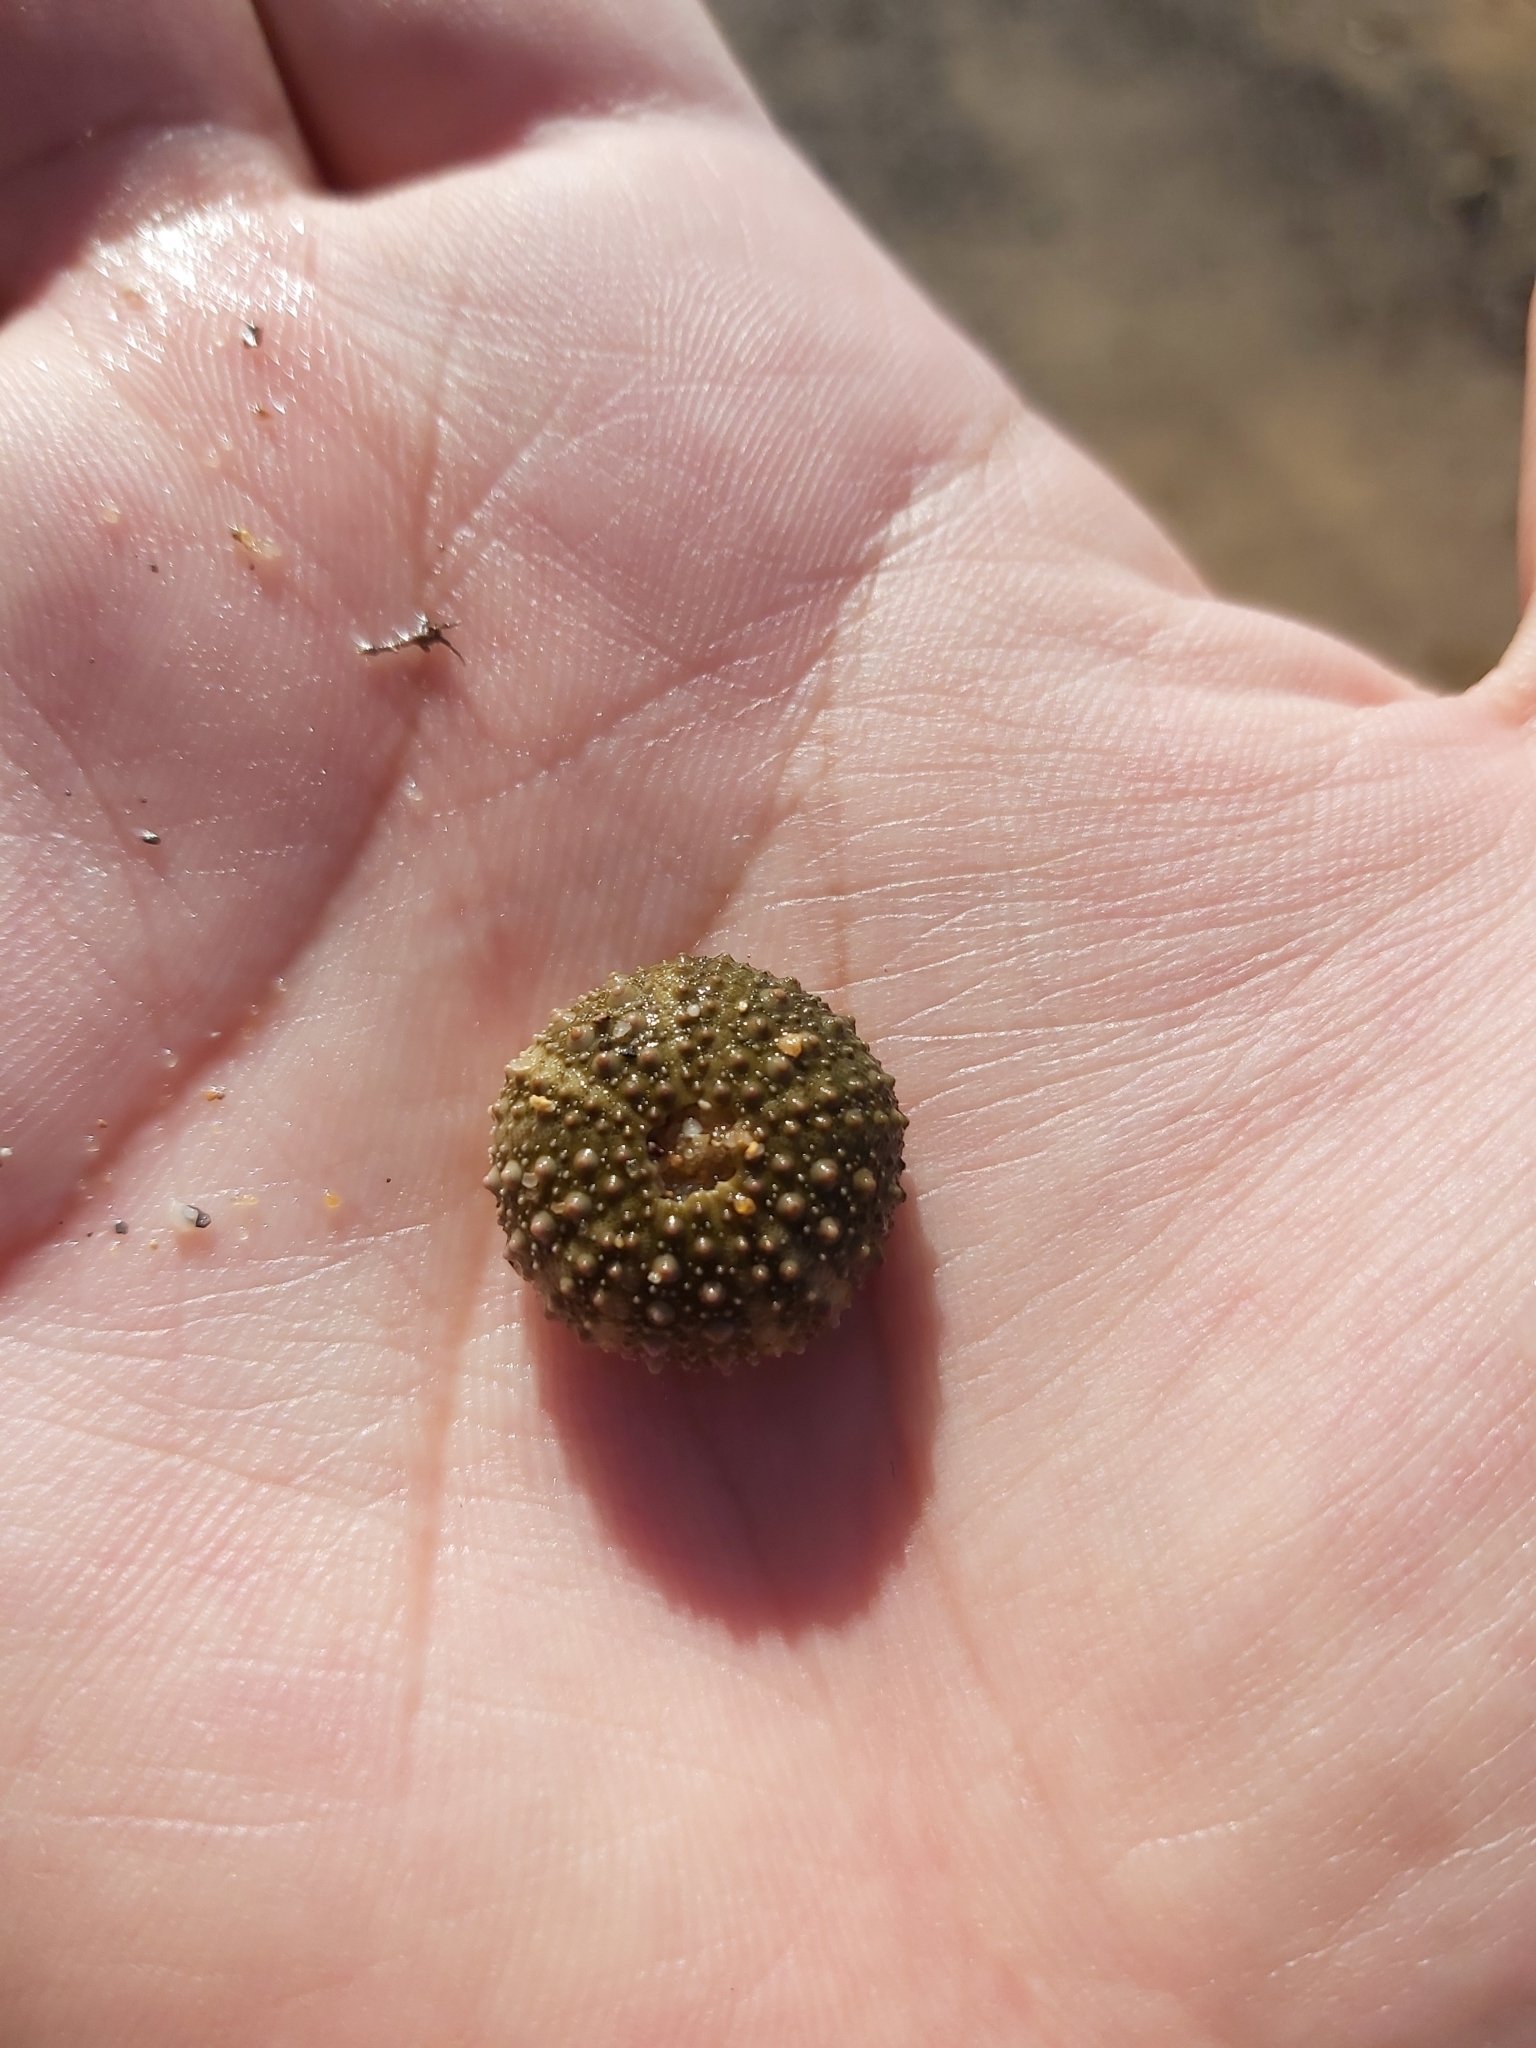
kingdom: Animalia
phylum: Echinodermata
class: Echinoidea
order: Camarodonta
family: Echinometridae
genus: Heliocidaris
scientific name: Heliocidaris erythrogramma
